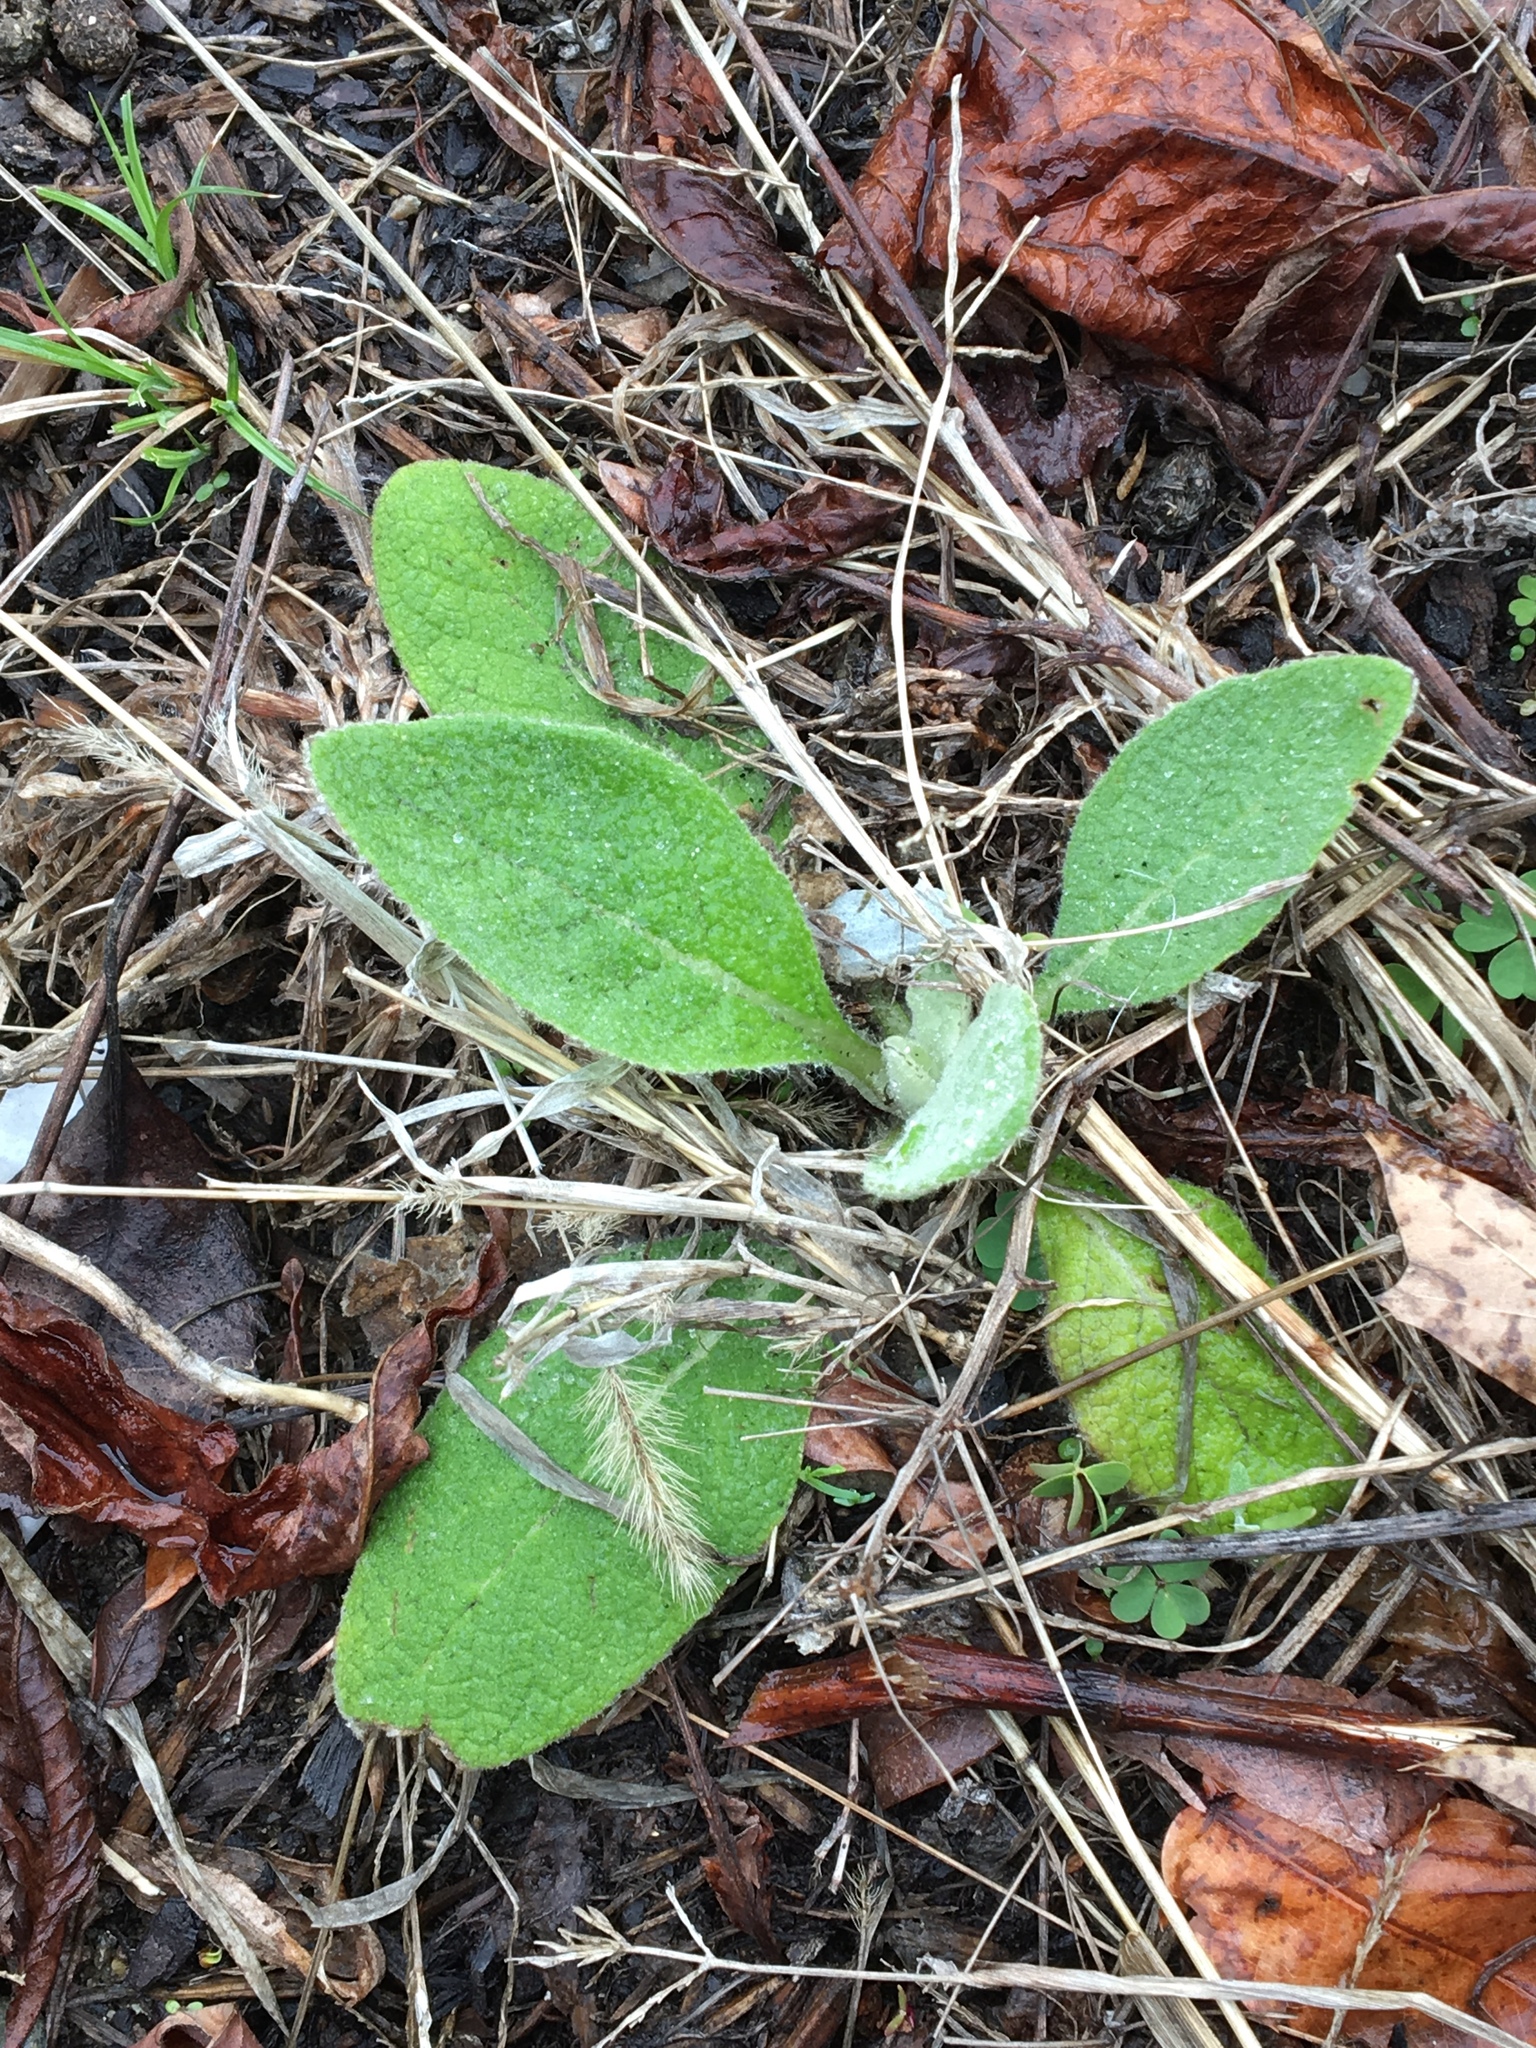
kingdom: Plantae
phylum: Tracheophyta
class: Magnoliopsida
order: Lamiales
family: Scrophulariaceae
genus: Verbascum
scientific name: Verbascum thapsus
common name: Common mullein
